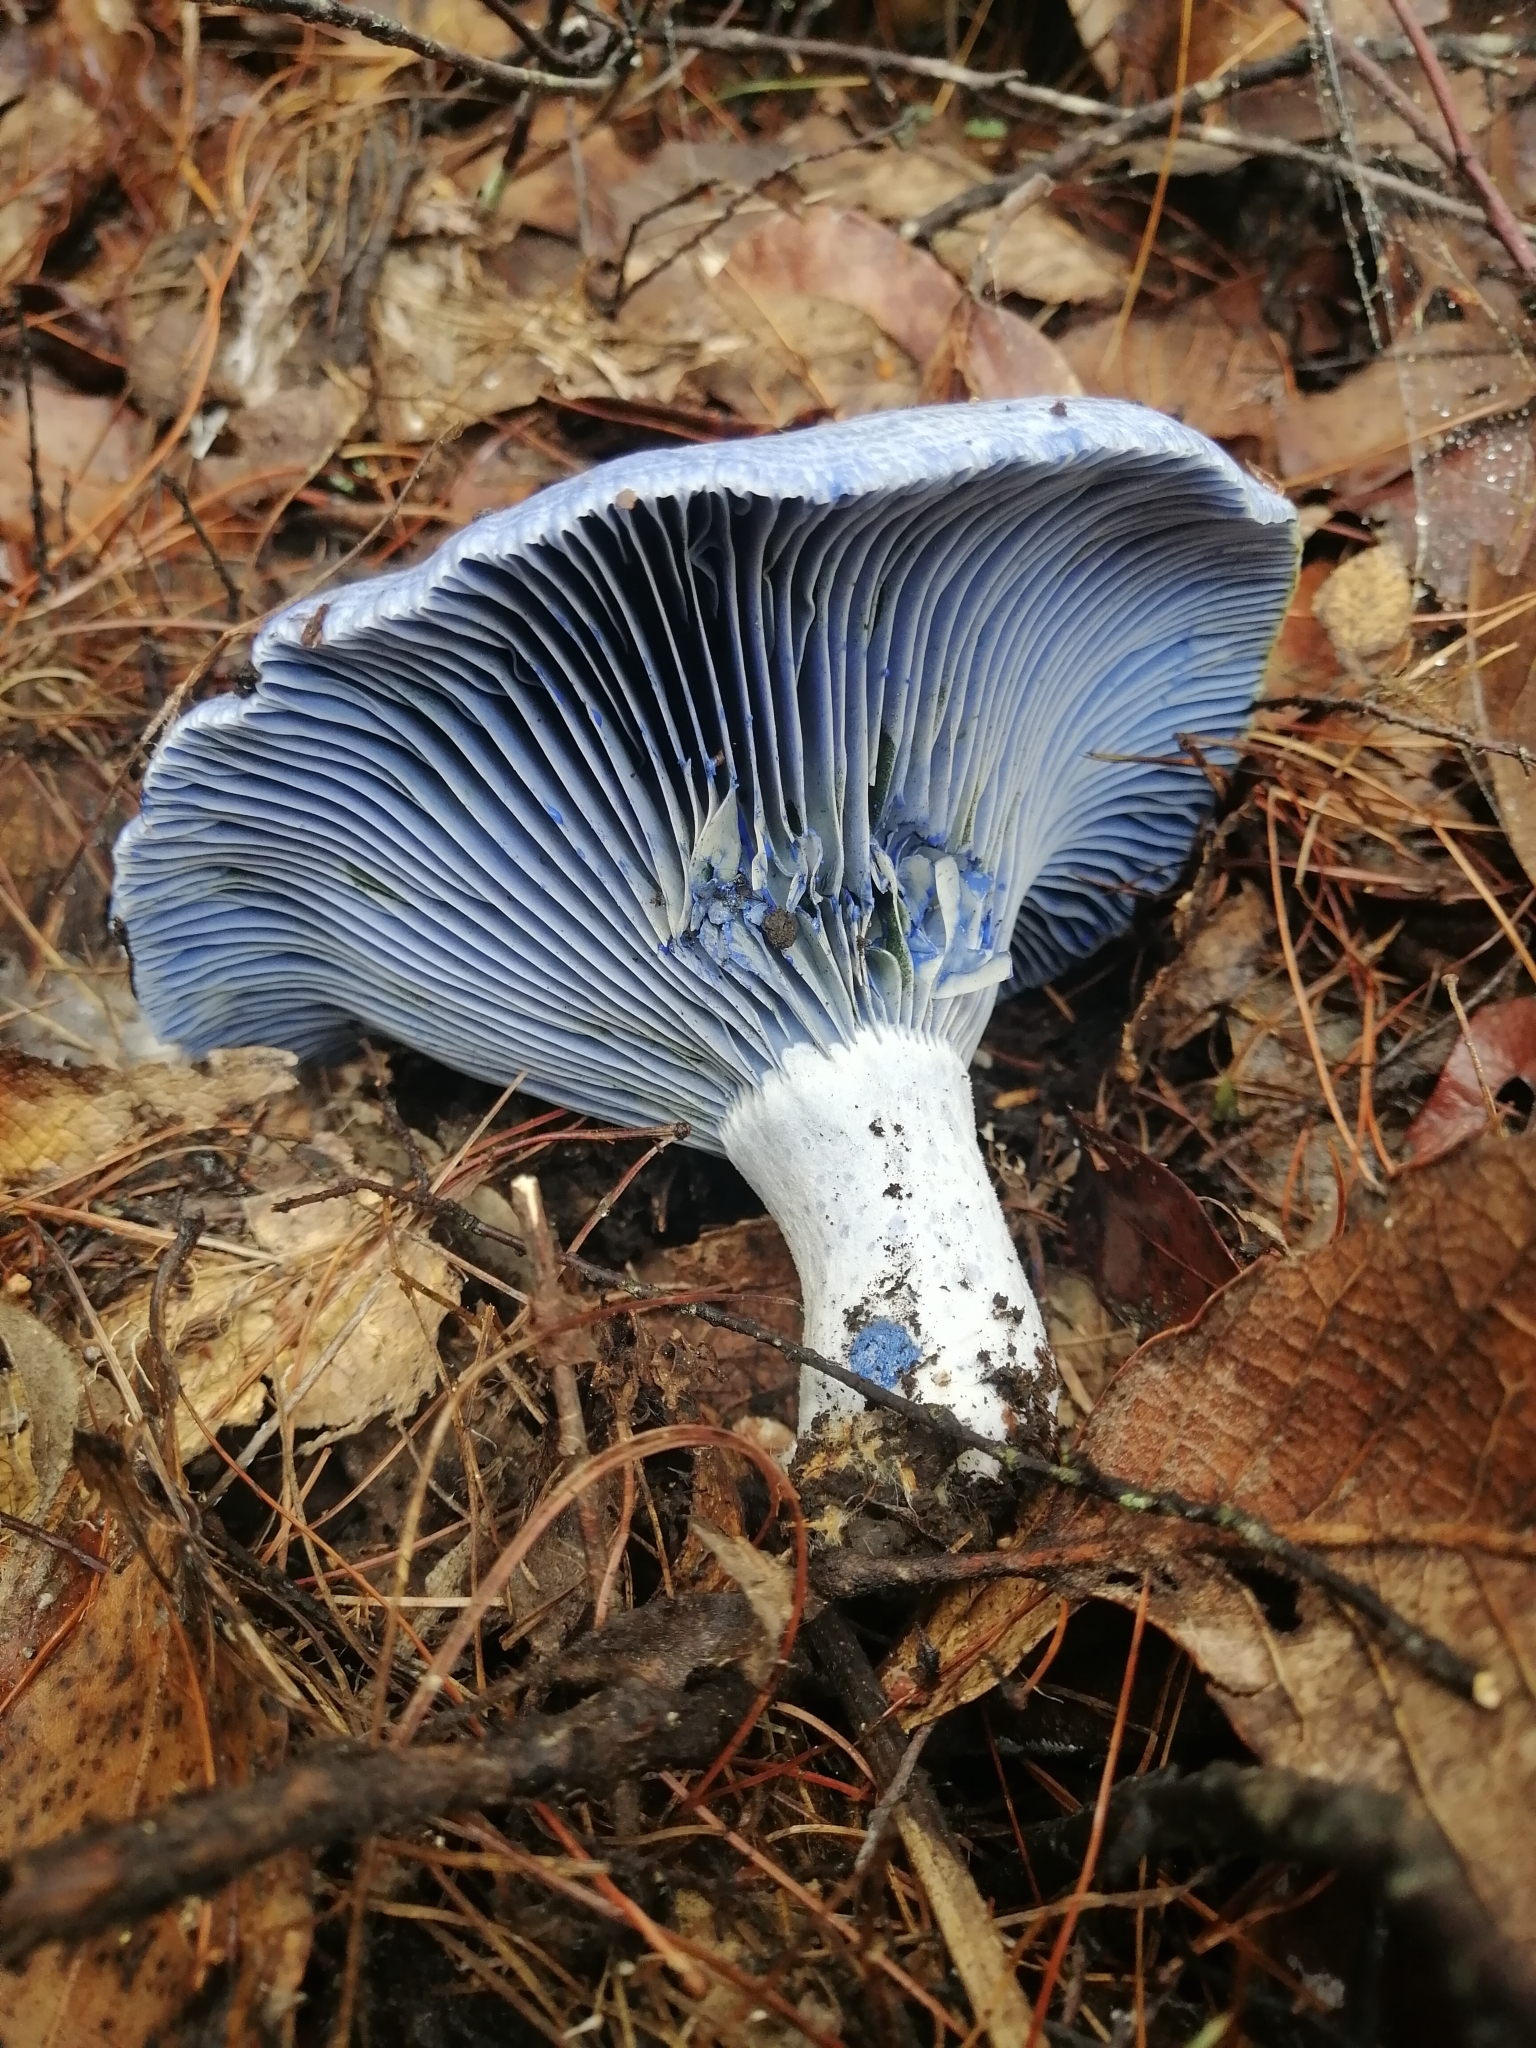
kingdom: Fungi
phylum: Basidiomycota
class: Agaricomycetes
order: Russulales
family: Russulaceae
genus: Lactarius
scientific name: Lactarius indigo
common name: Indigo milk cap
